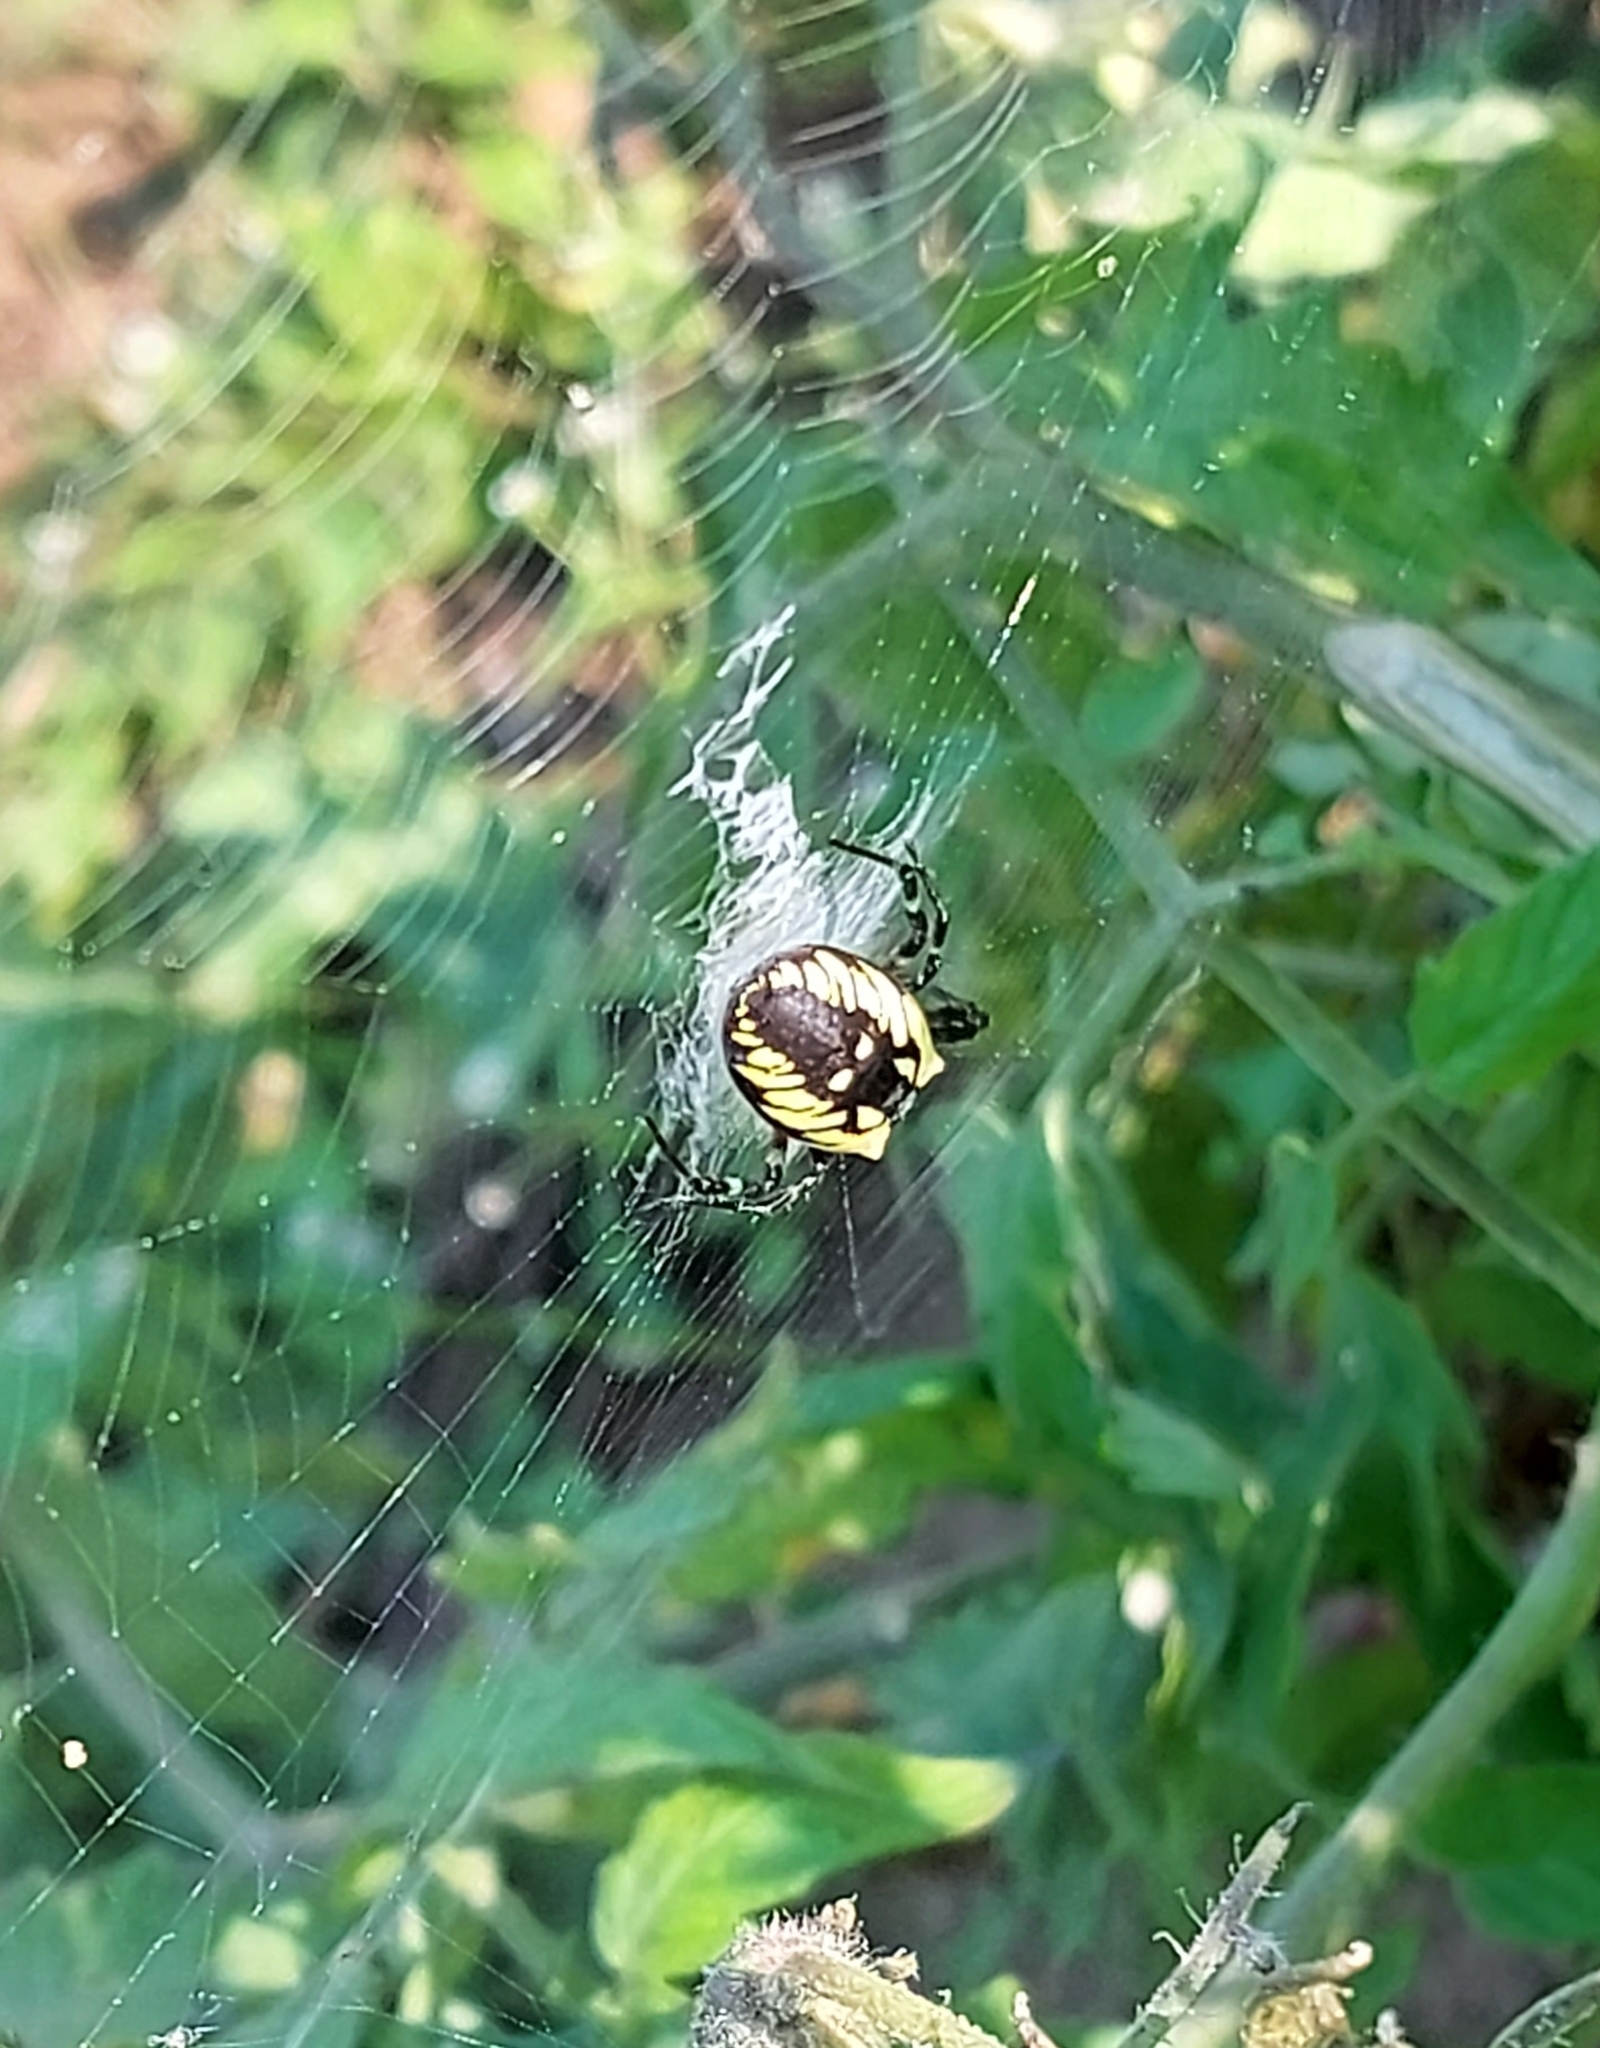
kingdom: Animalia
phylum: Arthropoda
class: Arachnida
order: Araneae
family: Araneidae
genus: Argiope
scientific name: Argiope aurantia
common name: Orb weavers
